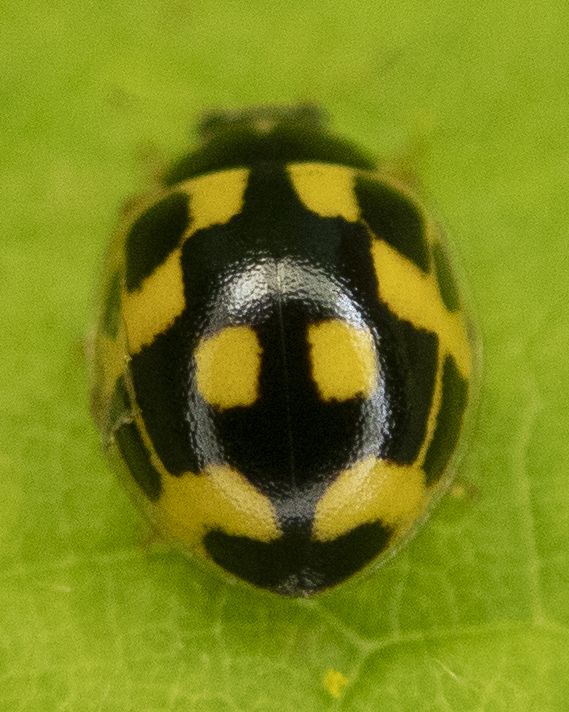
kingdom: Animalia
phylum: Arthropoda
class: Insecta
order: Coleoptera
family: Coccinellidae
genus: Propylaea
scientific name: Propylaea quatuordecimpunctata
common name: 14-spotted ladybird beetle
